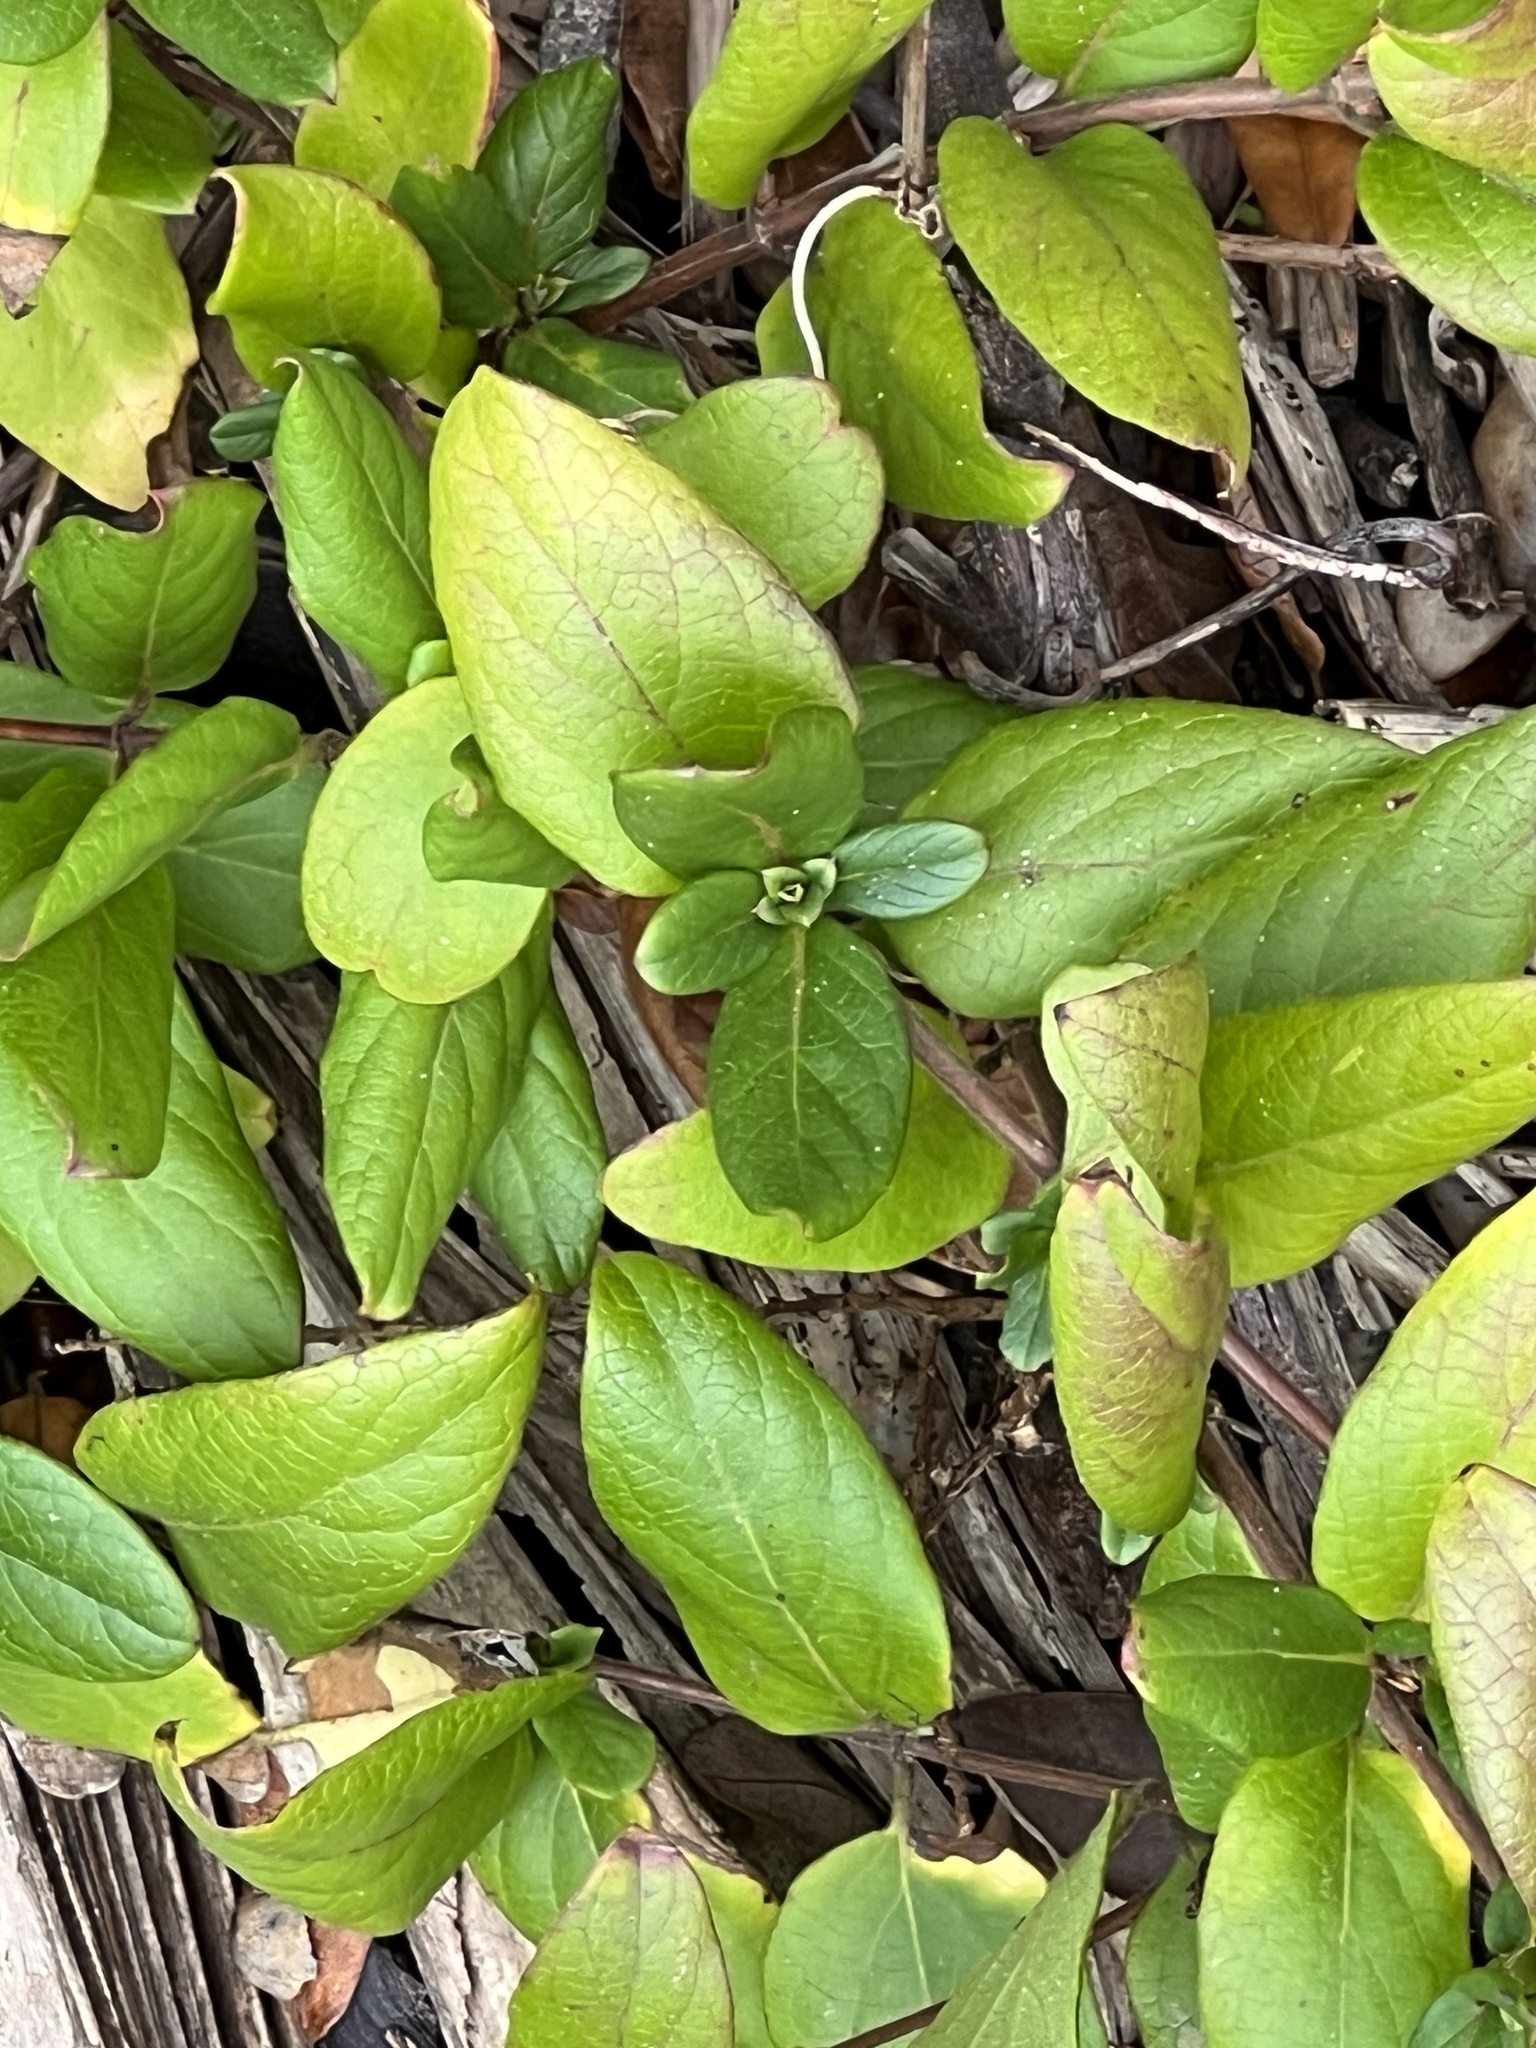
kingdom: Plantae
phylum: Tracheophyta
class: Magnoliopsida
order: Dipsacales
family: Caprifoliaceae
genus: Lonicera
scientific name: Lonicera japonica
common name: Japanese honeysuckle
